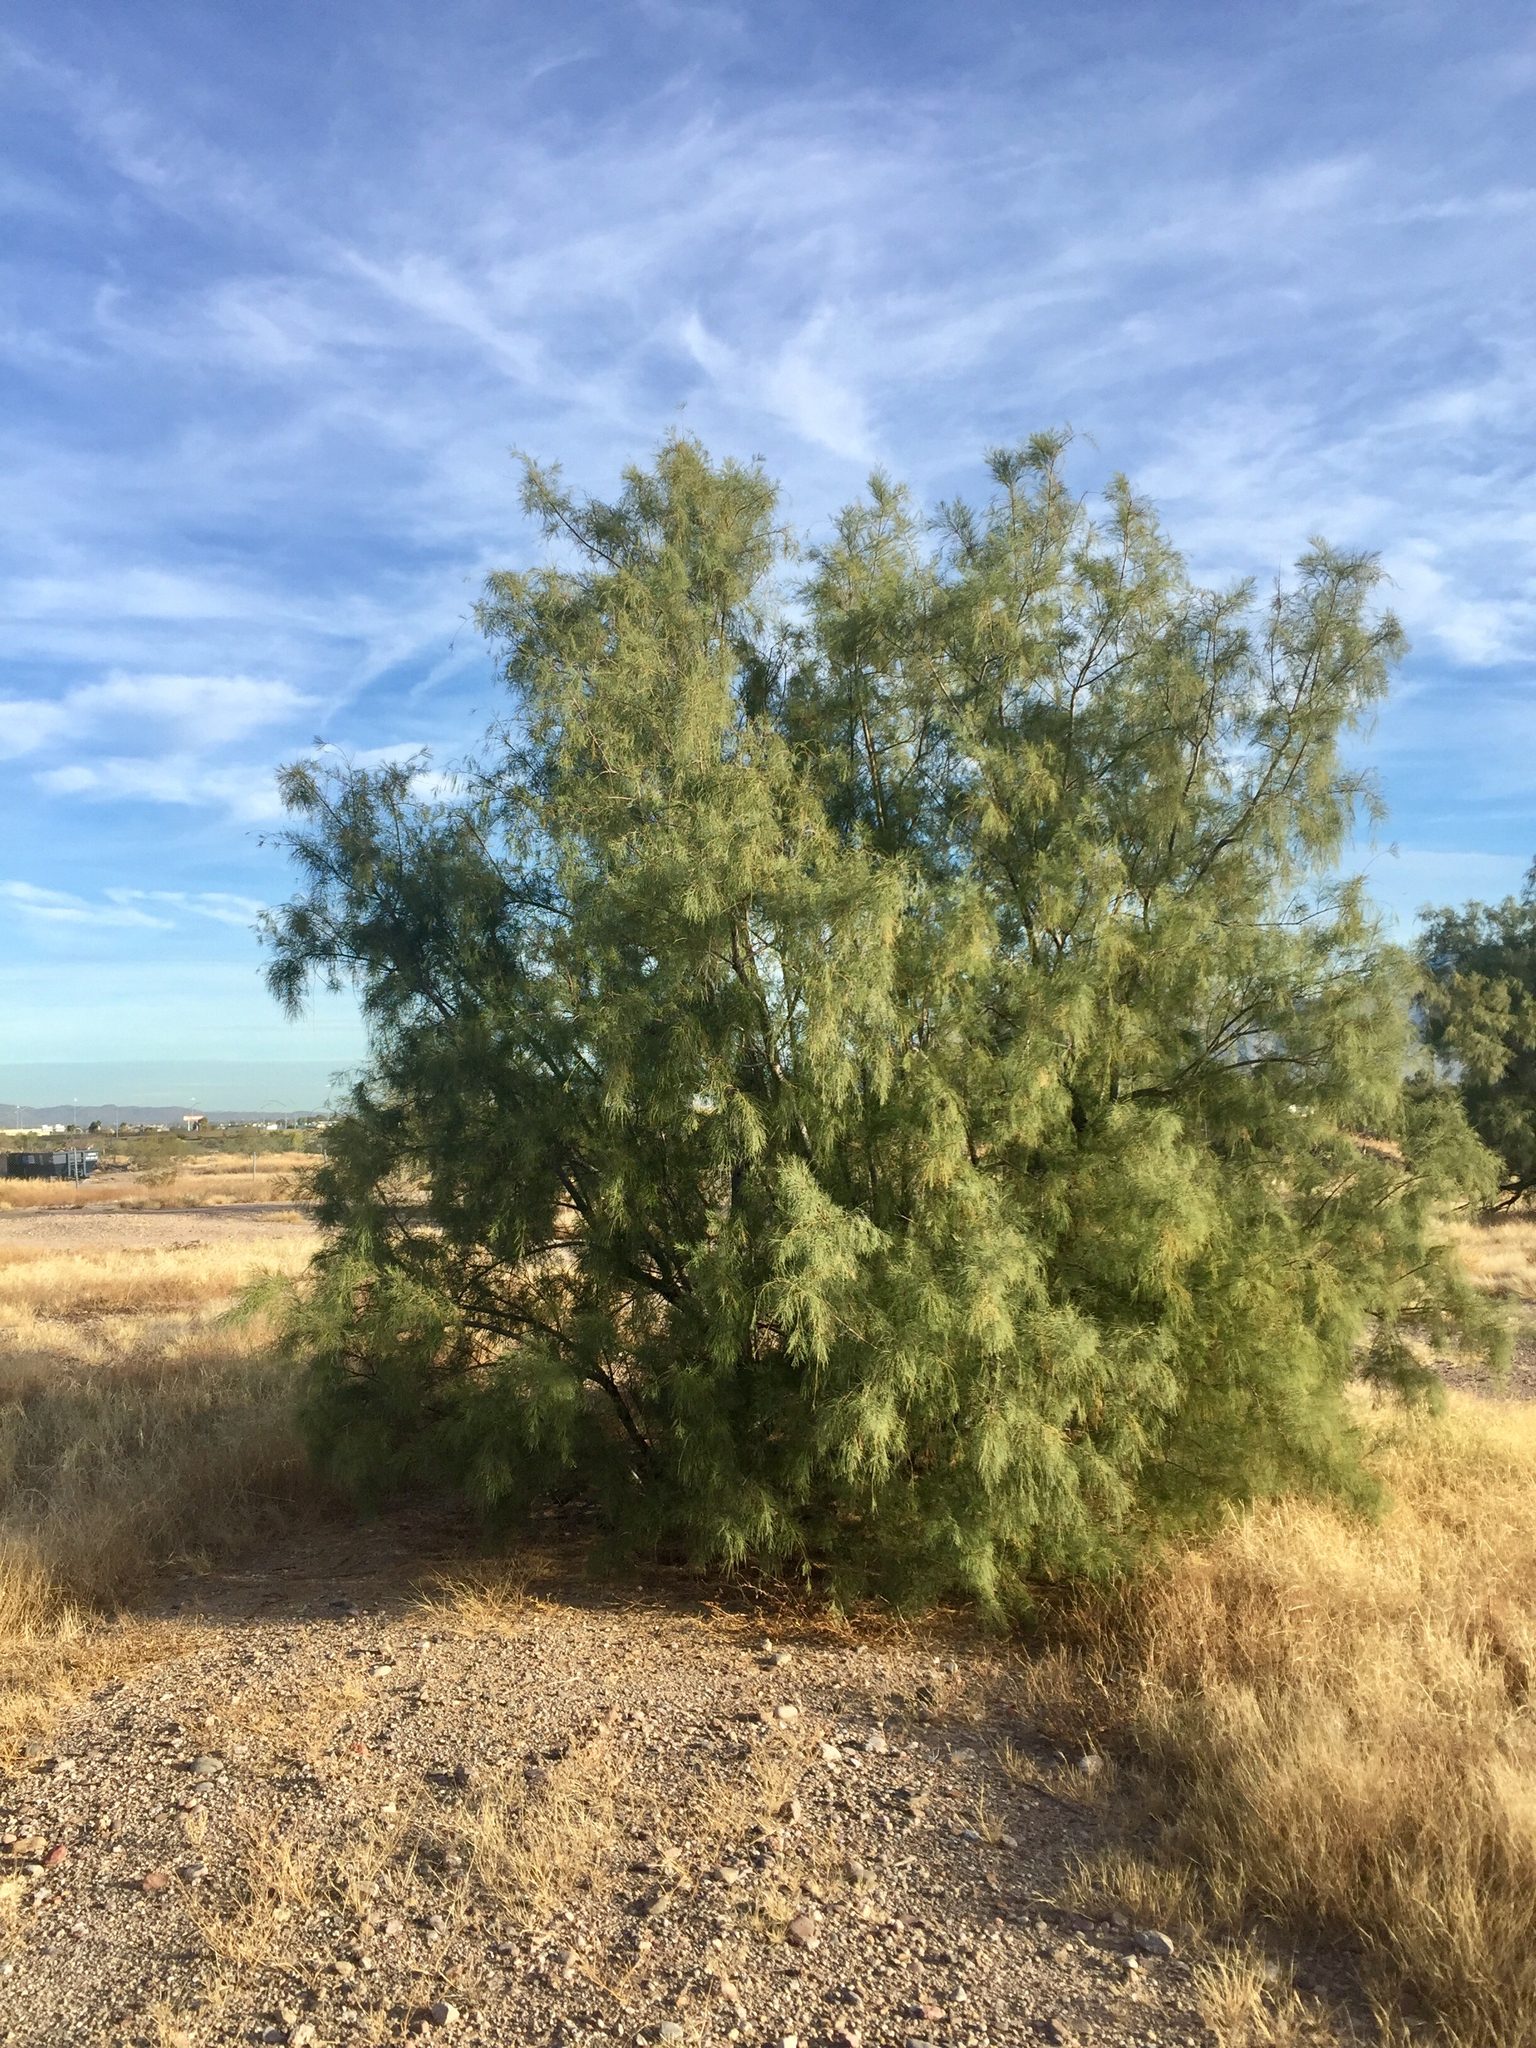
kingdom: Plantae
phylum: Tracheophyta
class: Magnoliopsida
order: Caryophyllales
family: Tamaricaceae
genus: Tamarix
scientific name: Tamarix aphylla
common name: Athel tamarisk
